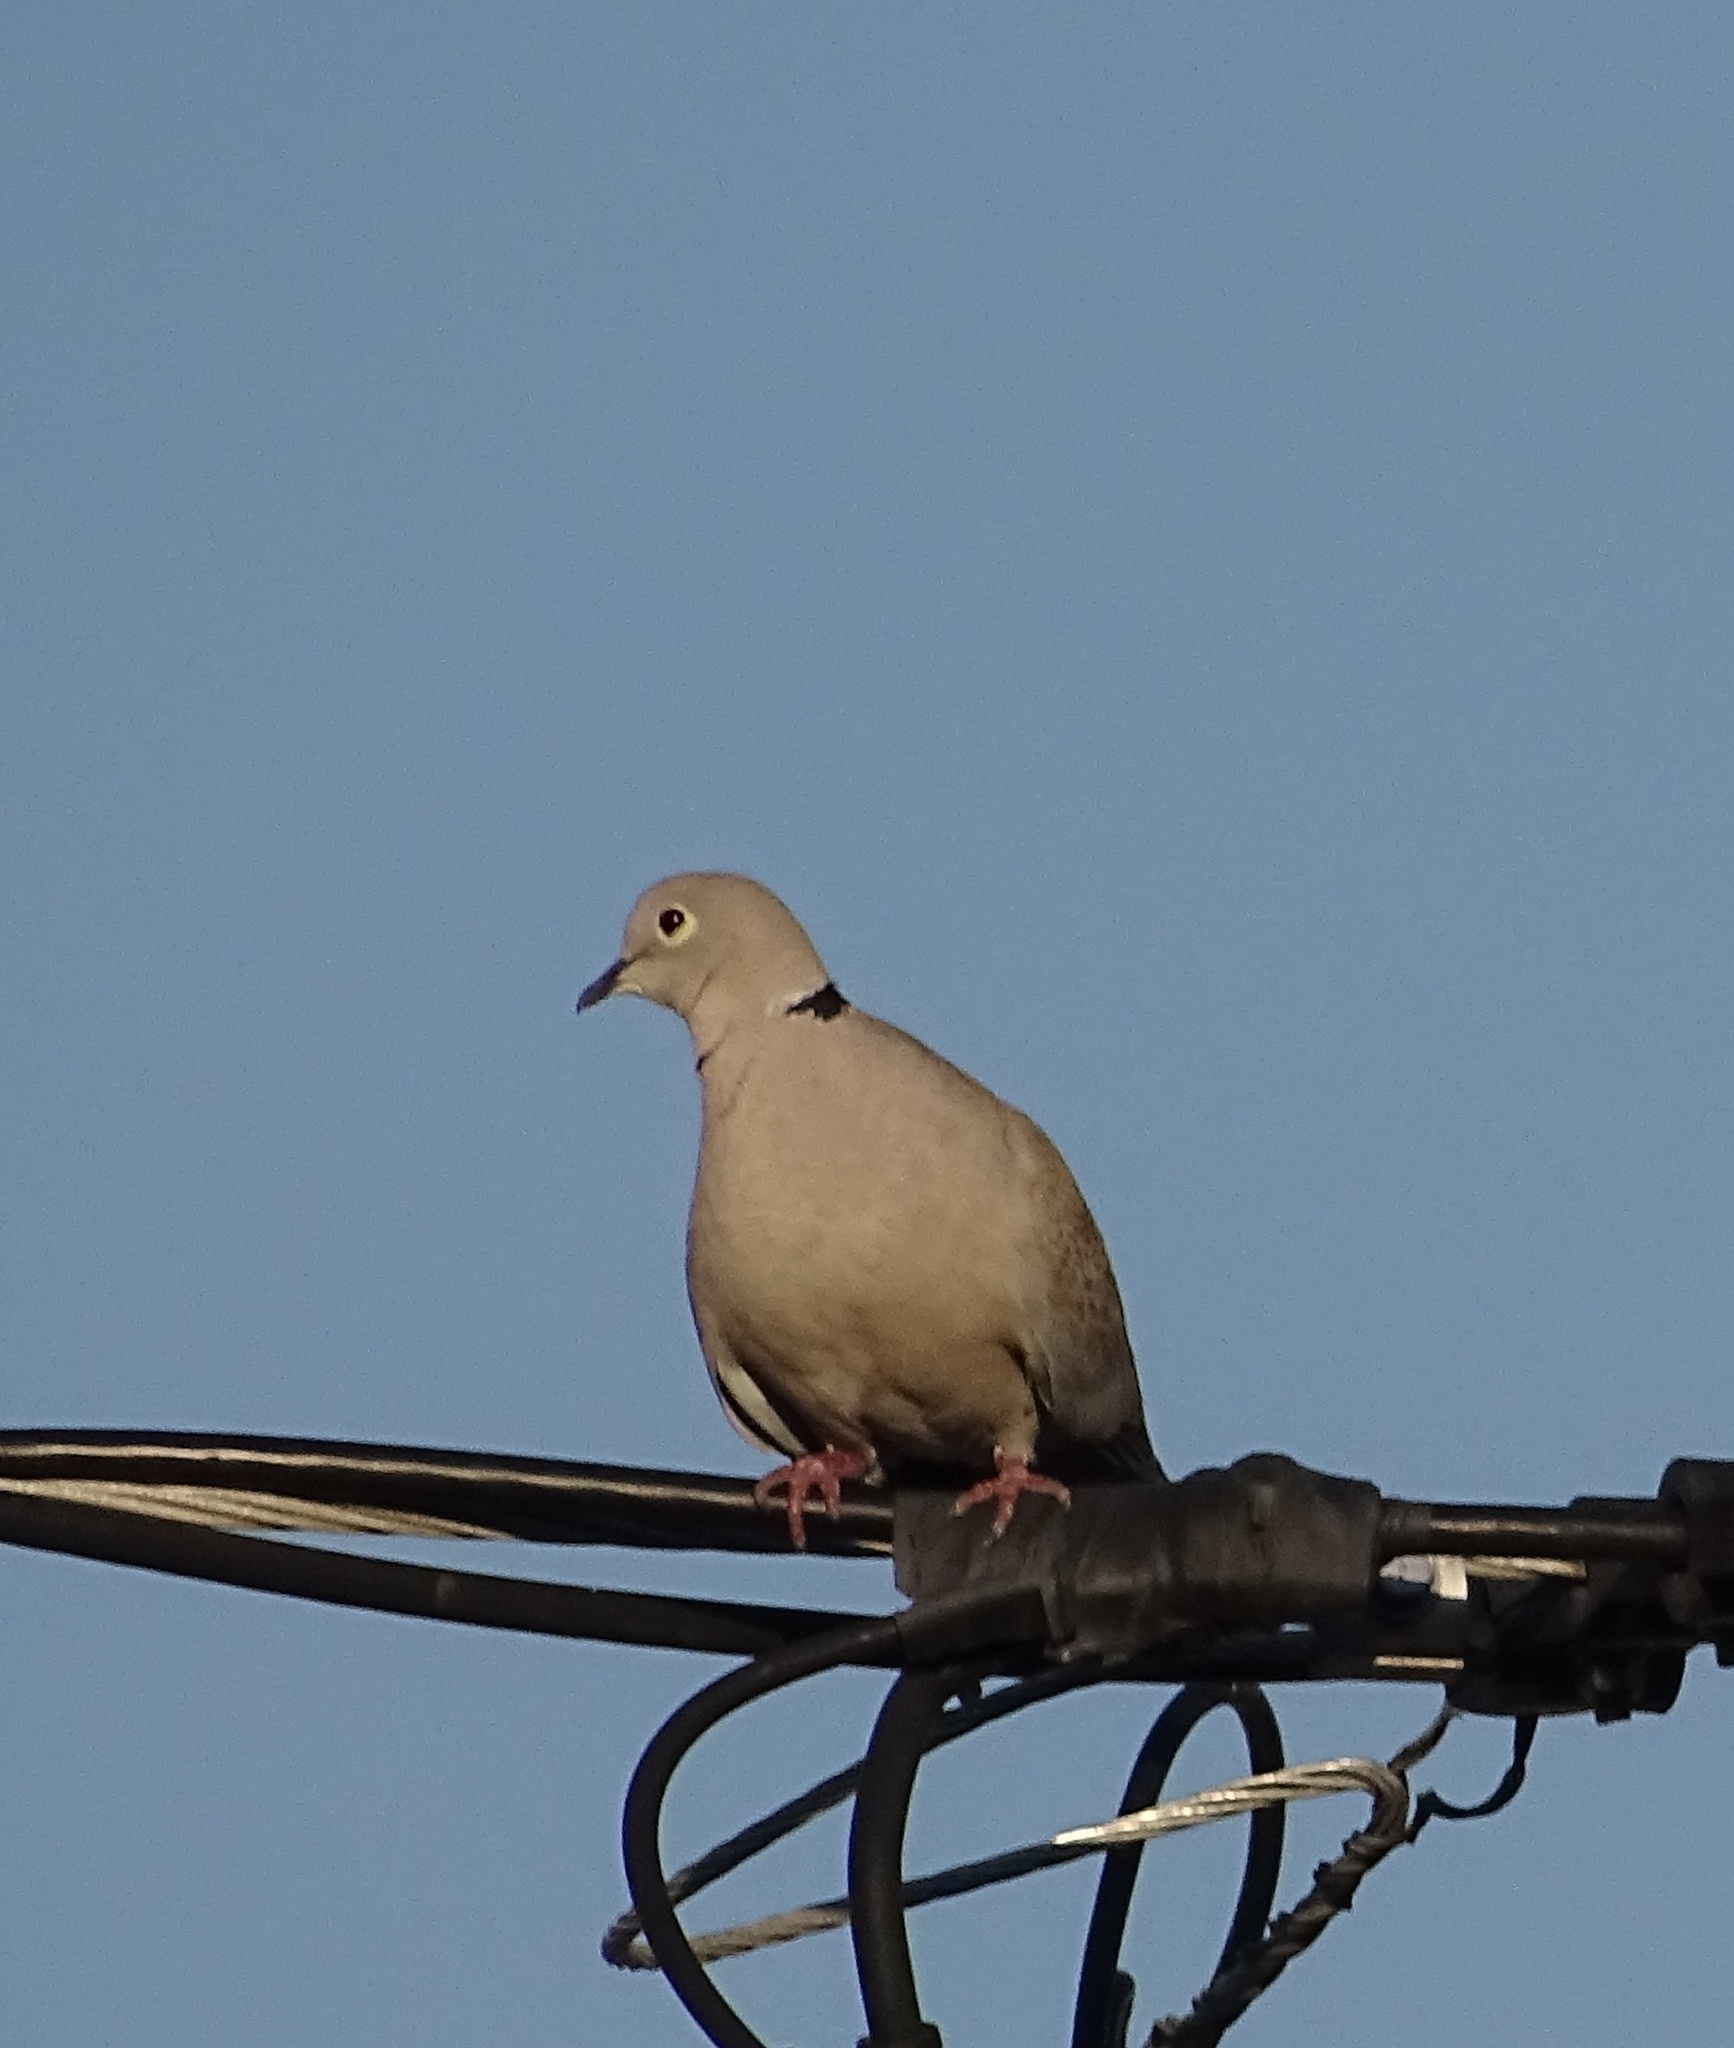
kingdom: Animalia
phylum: Chordata
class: Aves
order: Columbiformes
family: Columbidae
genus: Streptopelia
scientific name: Streptopelia decaocto
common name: Eurasian collared dove
